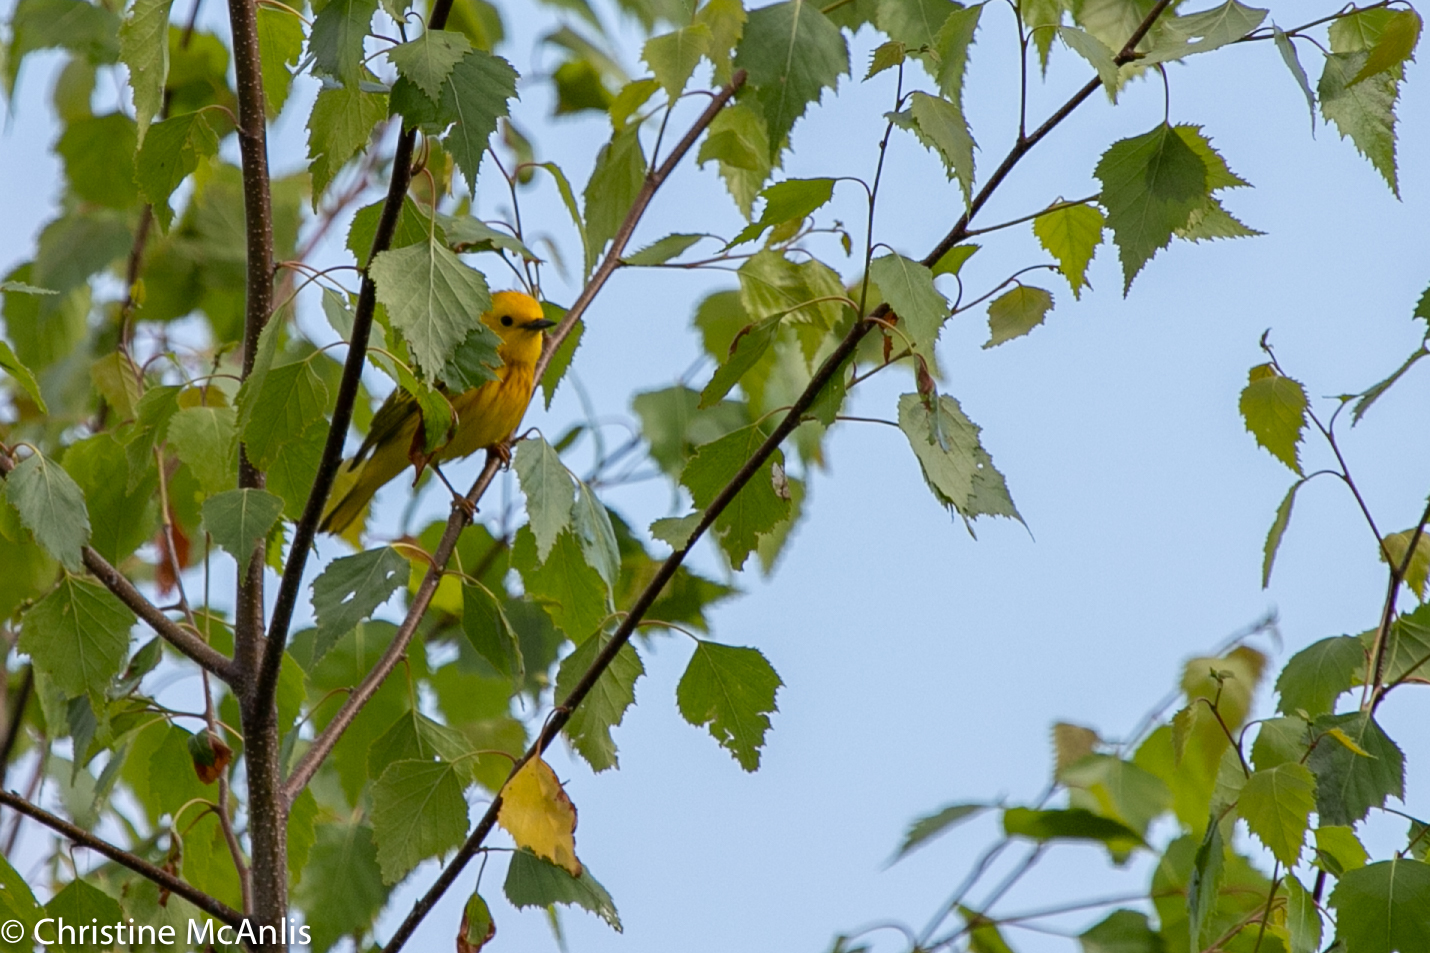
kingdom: Animalia
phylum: Chordata
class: Aves
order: Passeriformes
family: Parulidae
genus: Setophaga
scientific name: Setophaga petechia
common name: Yellow warbler
